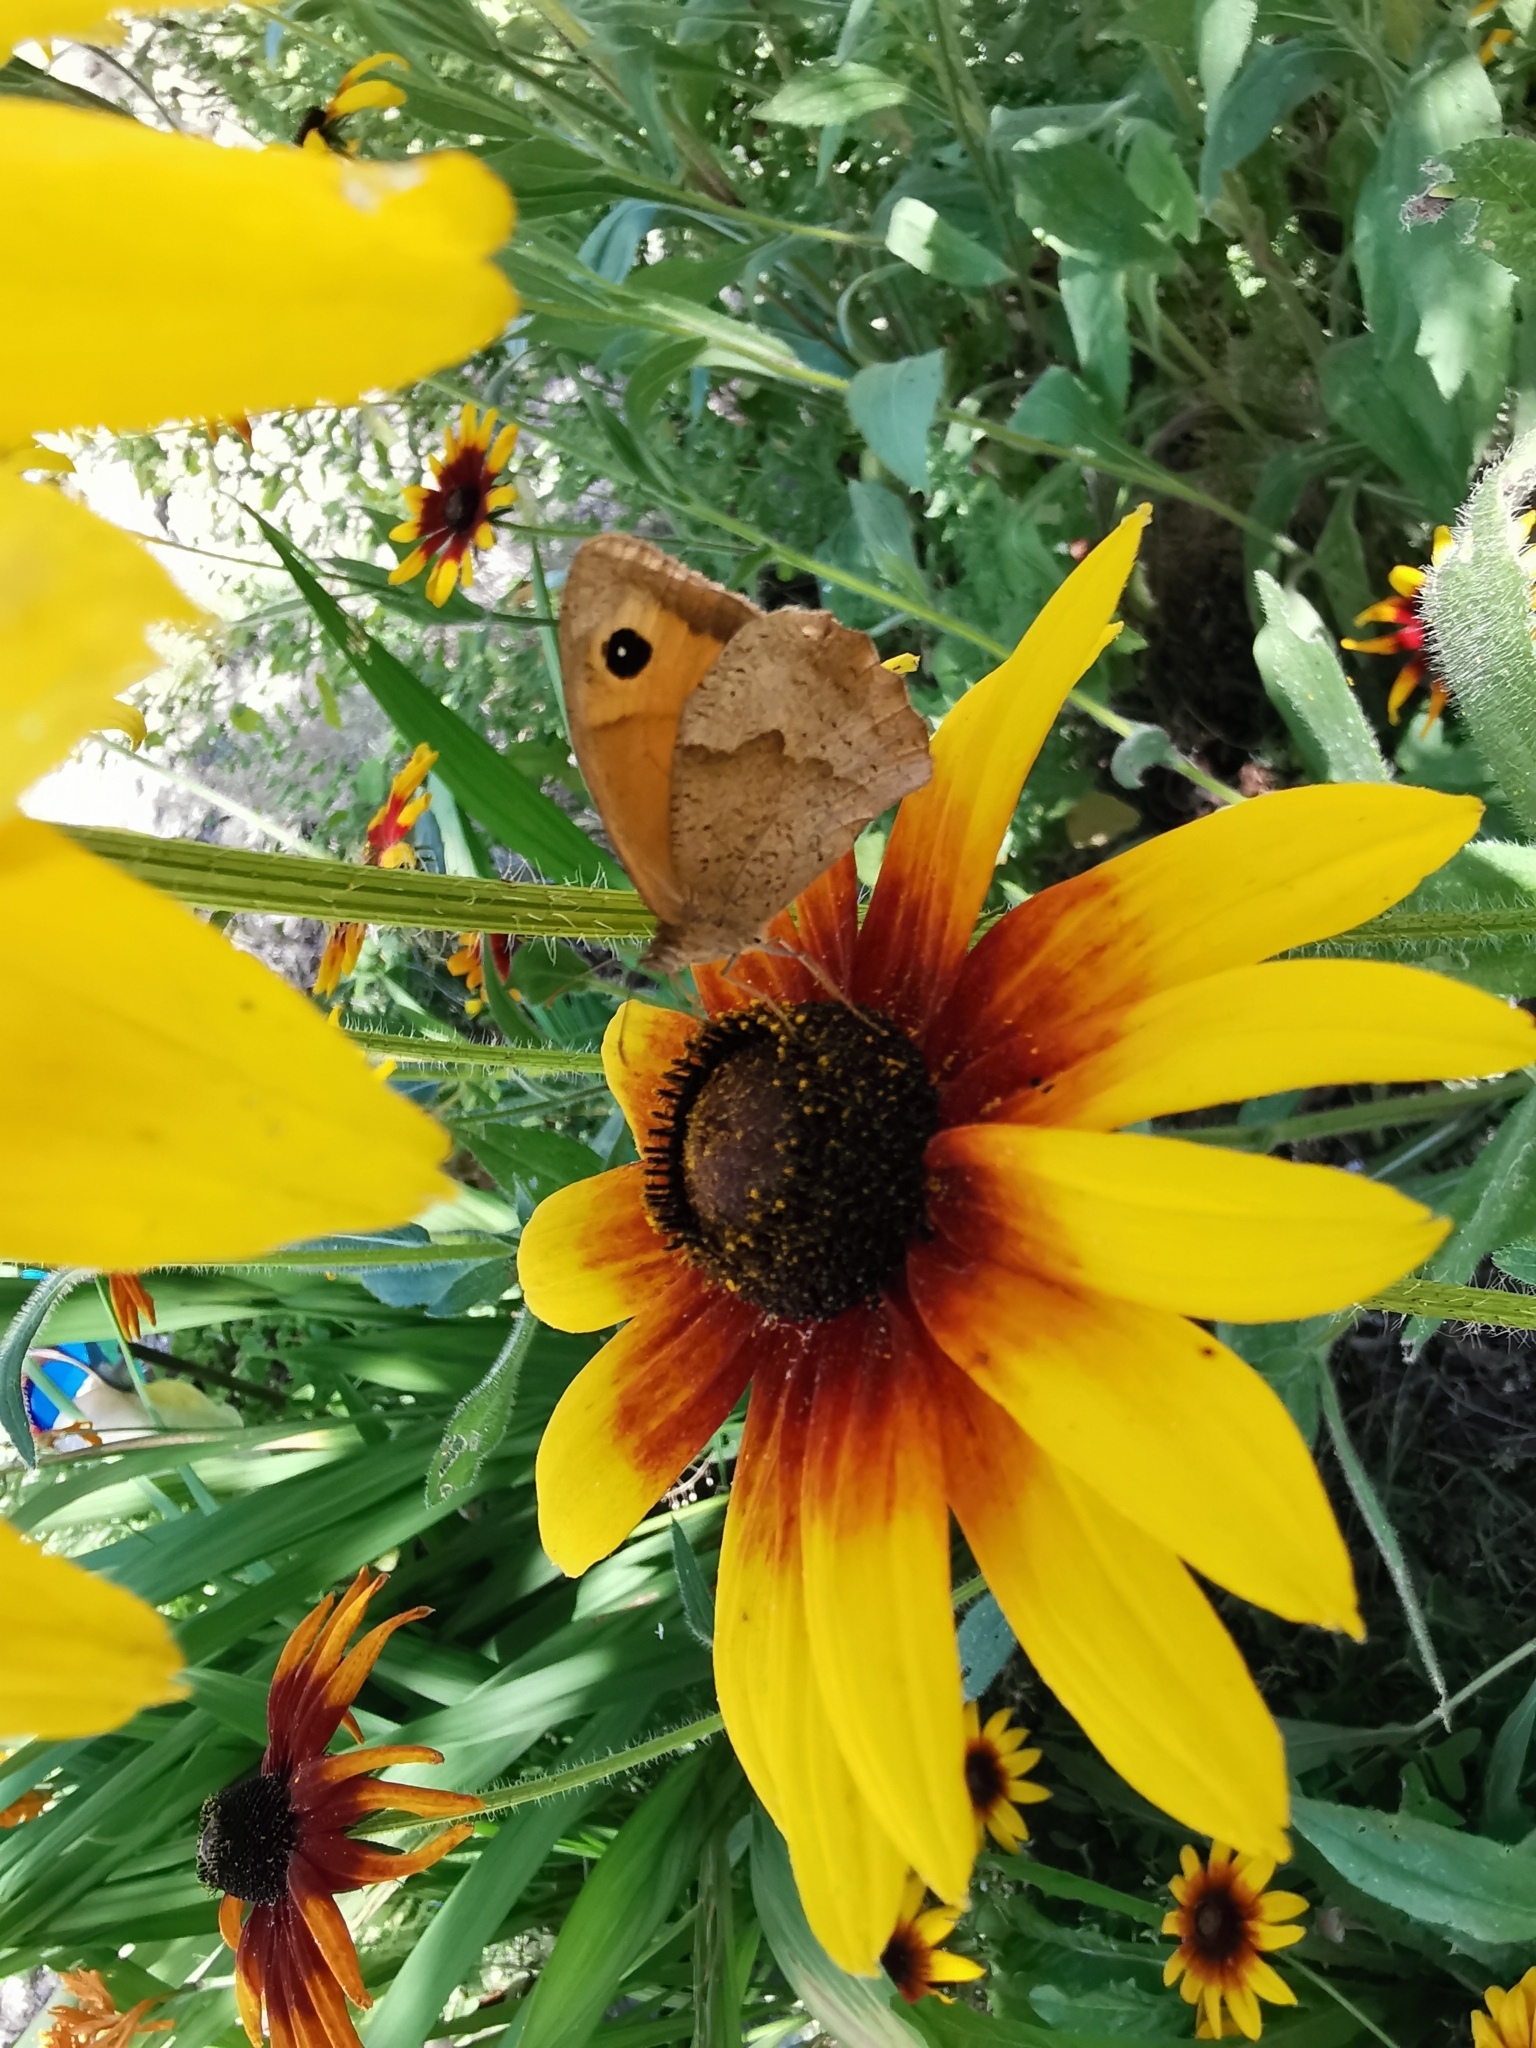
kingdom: Animalia
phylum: Arthropoda
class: Insecta
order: Lepidoptera
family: Nymphalidae
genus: Maniola
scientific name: Maniola jurtina
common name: Meadow brown
